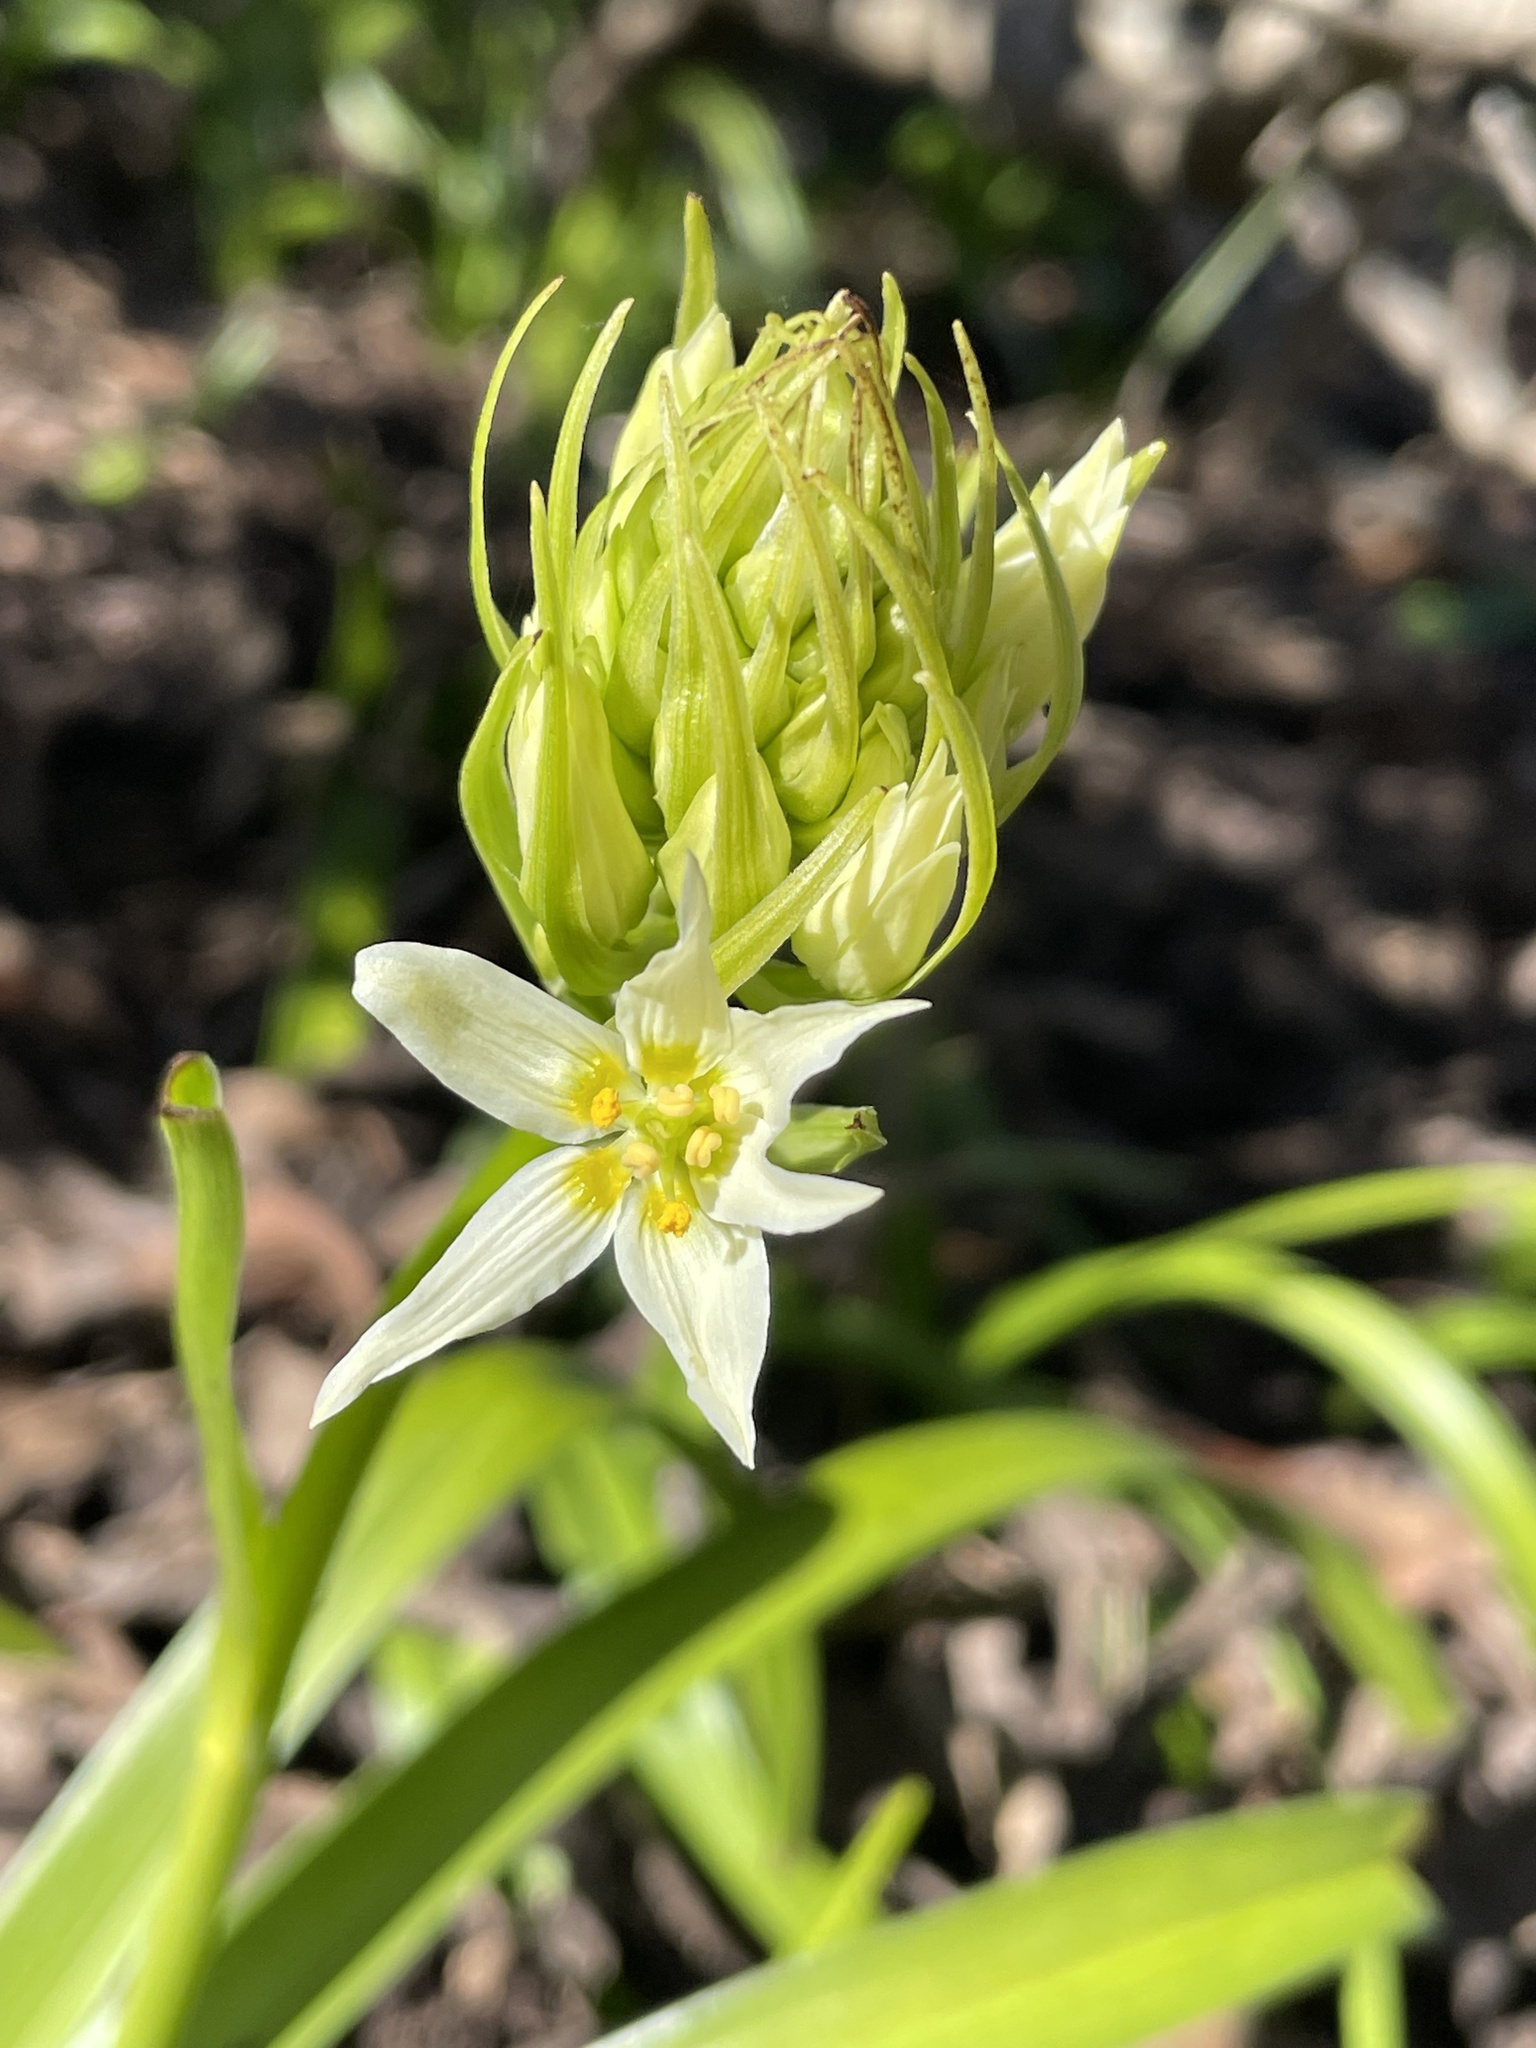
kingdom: Plantae
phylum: Tracheophyta
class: Liliopsida
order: Liliales
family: Melanthiaceae
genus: Toxicoscordion
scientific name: Toxicoscordion fremontii
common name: Fremont's death camas
